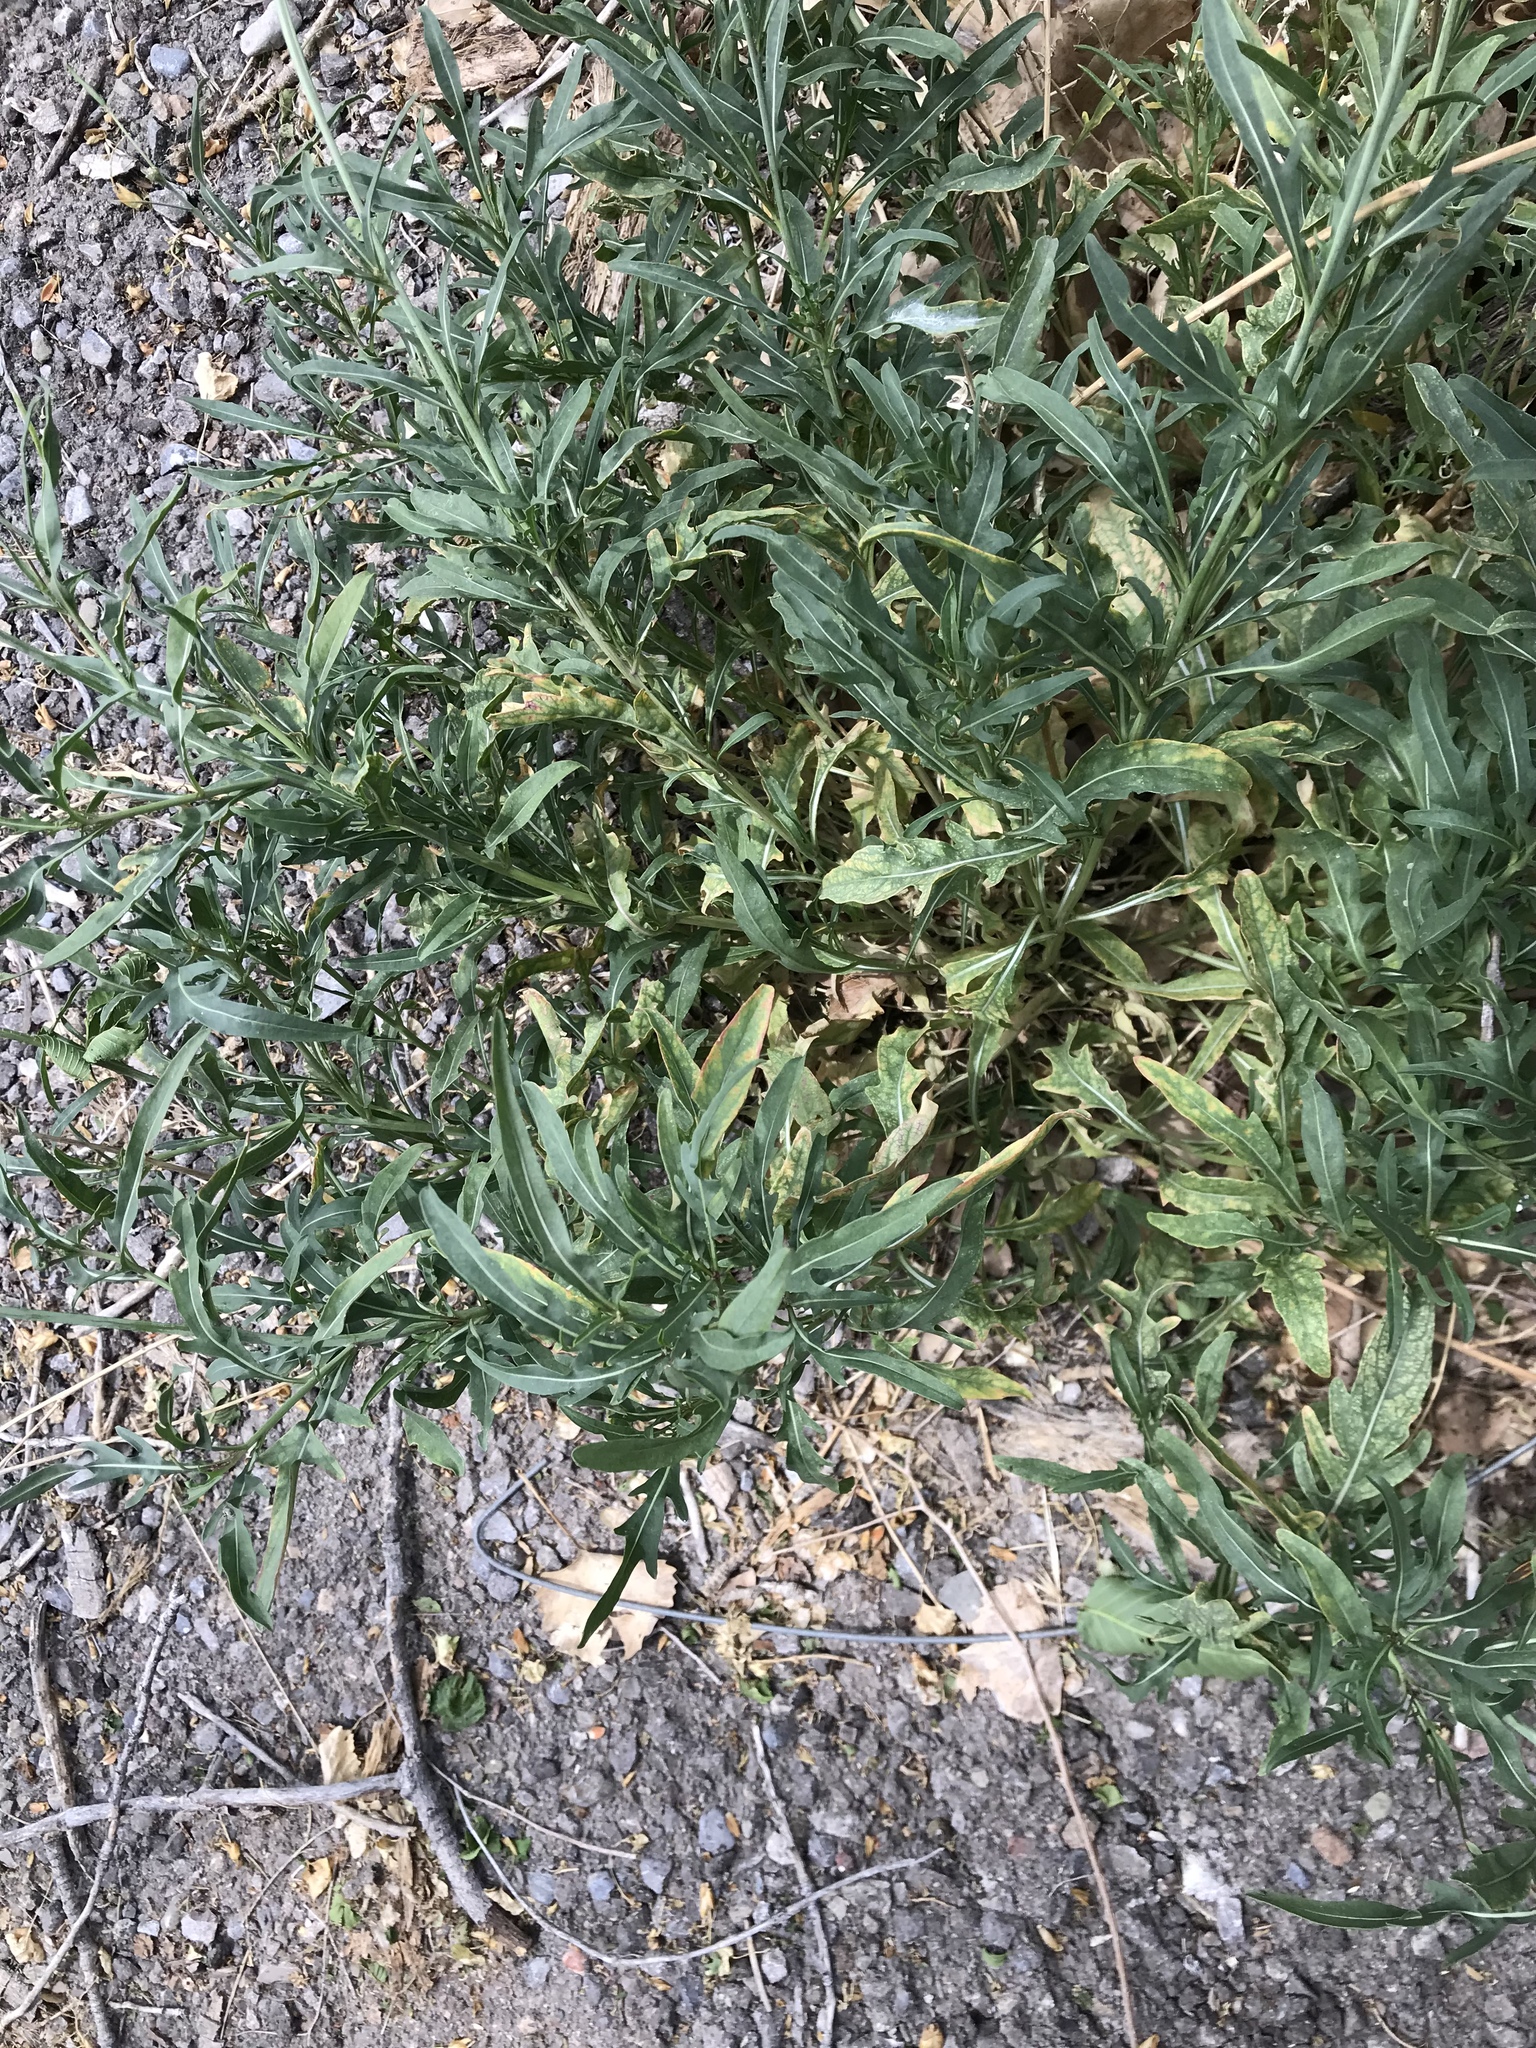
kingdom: Plantae
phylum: Tracheophyta
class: Magnoliopsida
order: Brassicales
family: Brassicaceae
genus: Diplotaxis
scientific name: Diplotaxis tenuifolia
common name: Perennial wall-rocket
